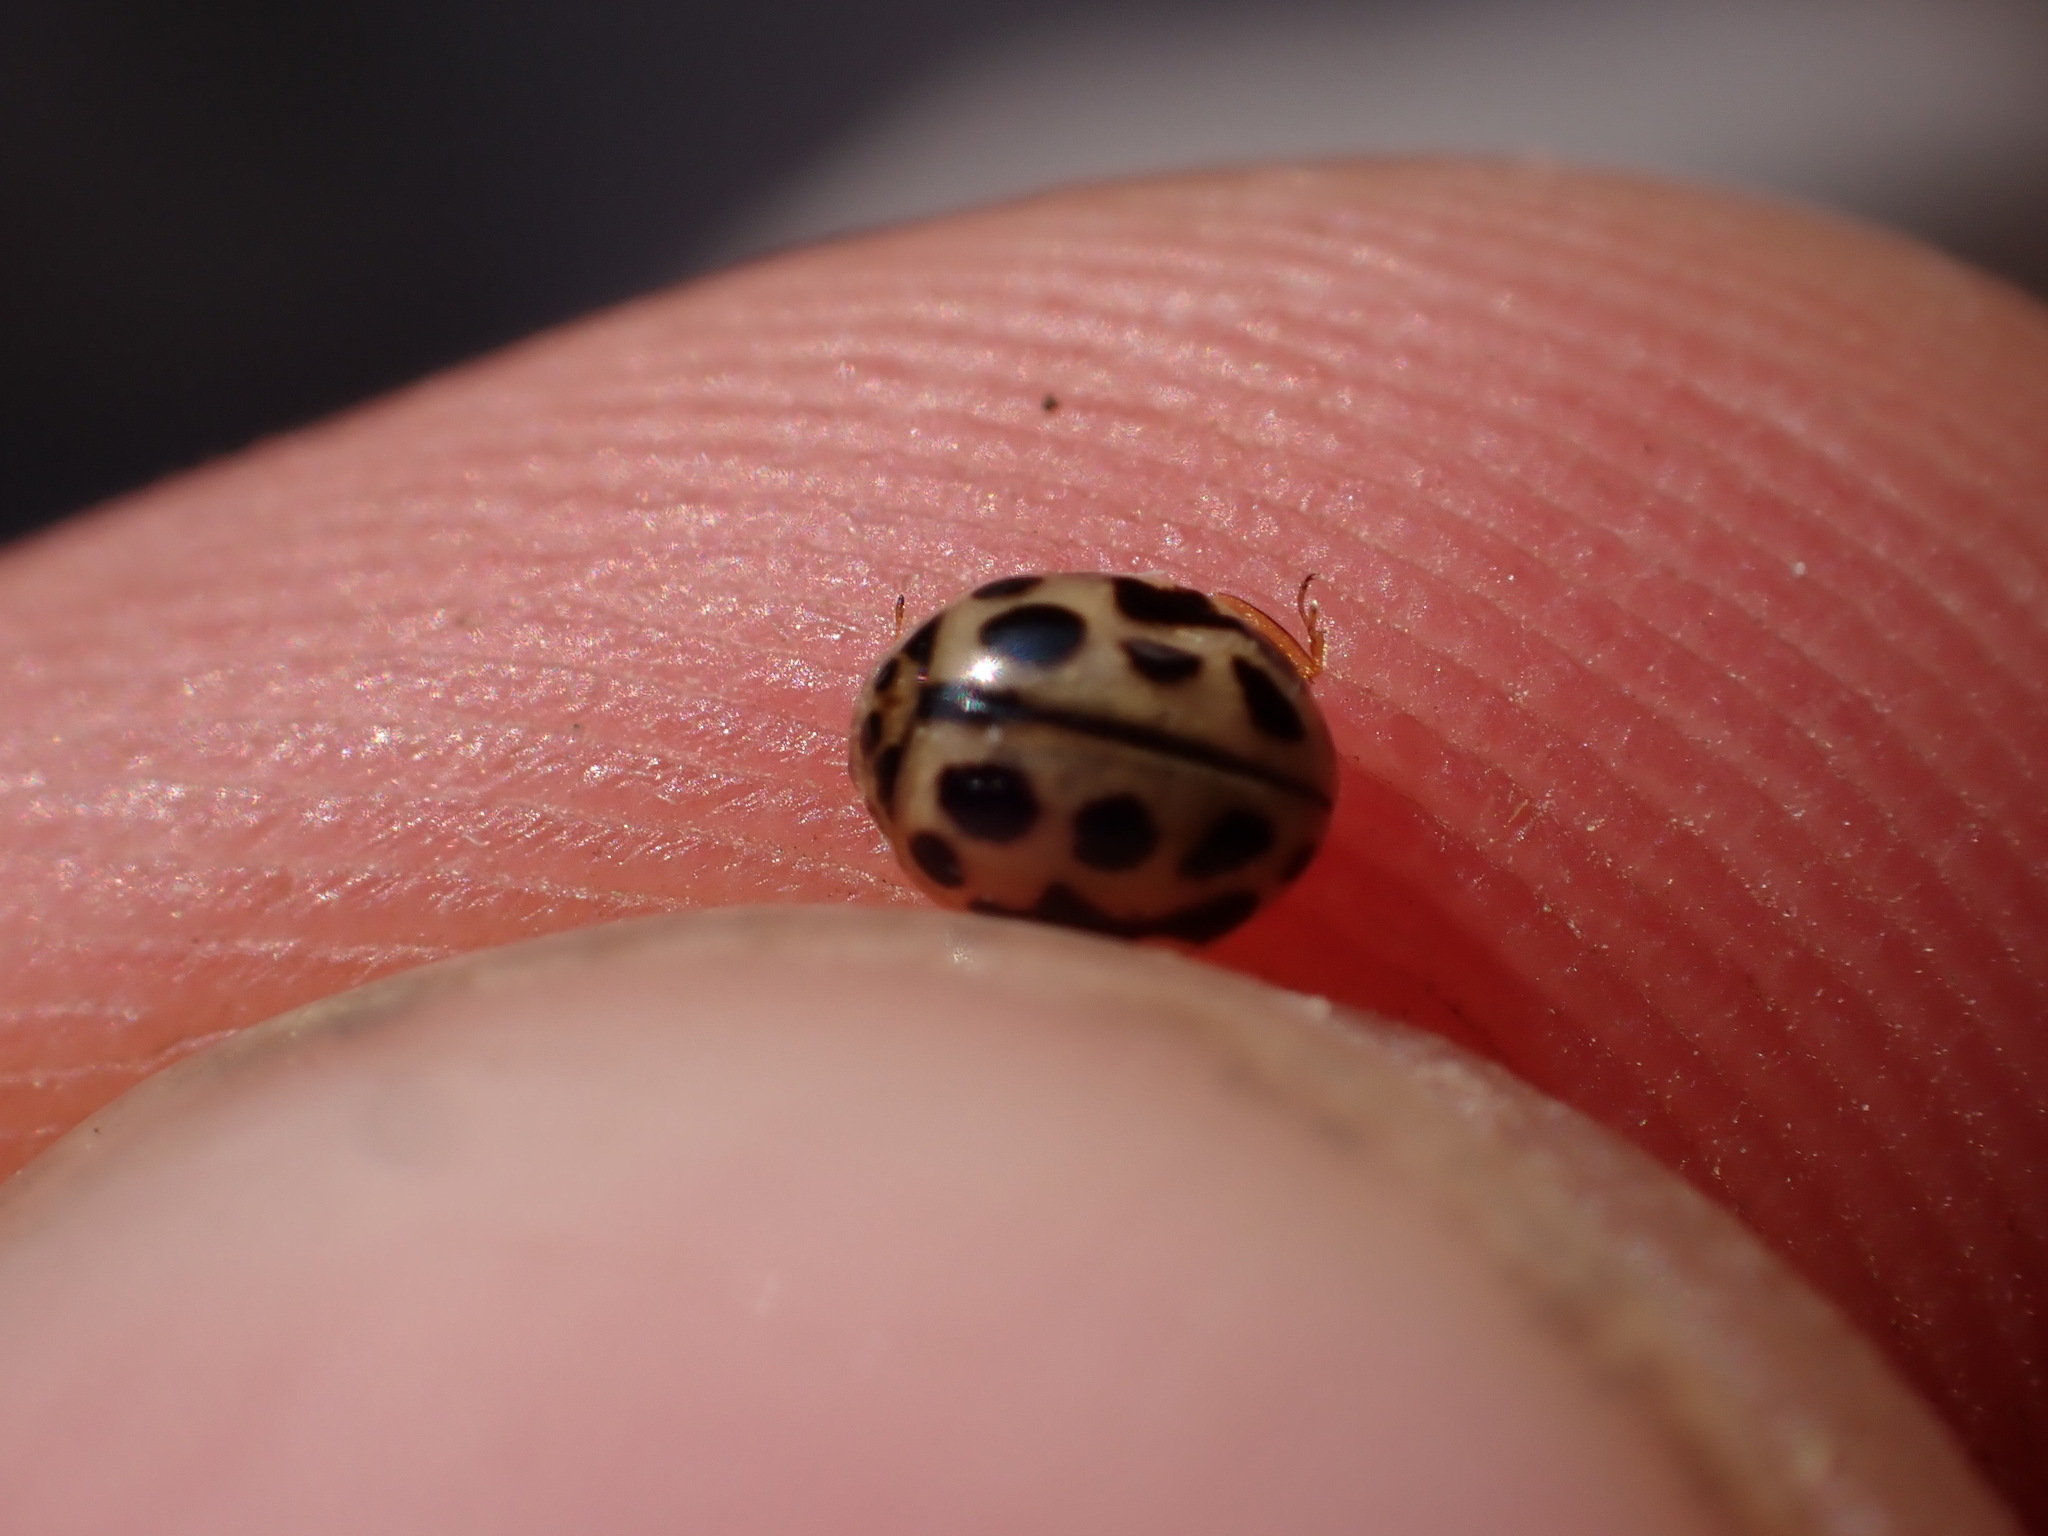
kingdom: Animalia
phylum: Arthropoda
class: Insecta
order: Coleoptera
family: Coccinellidae
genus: Tytthaspis
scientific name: Tytthaspis sedecimpunctata
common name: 16-spot ladybird
